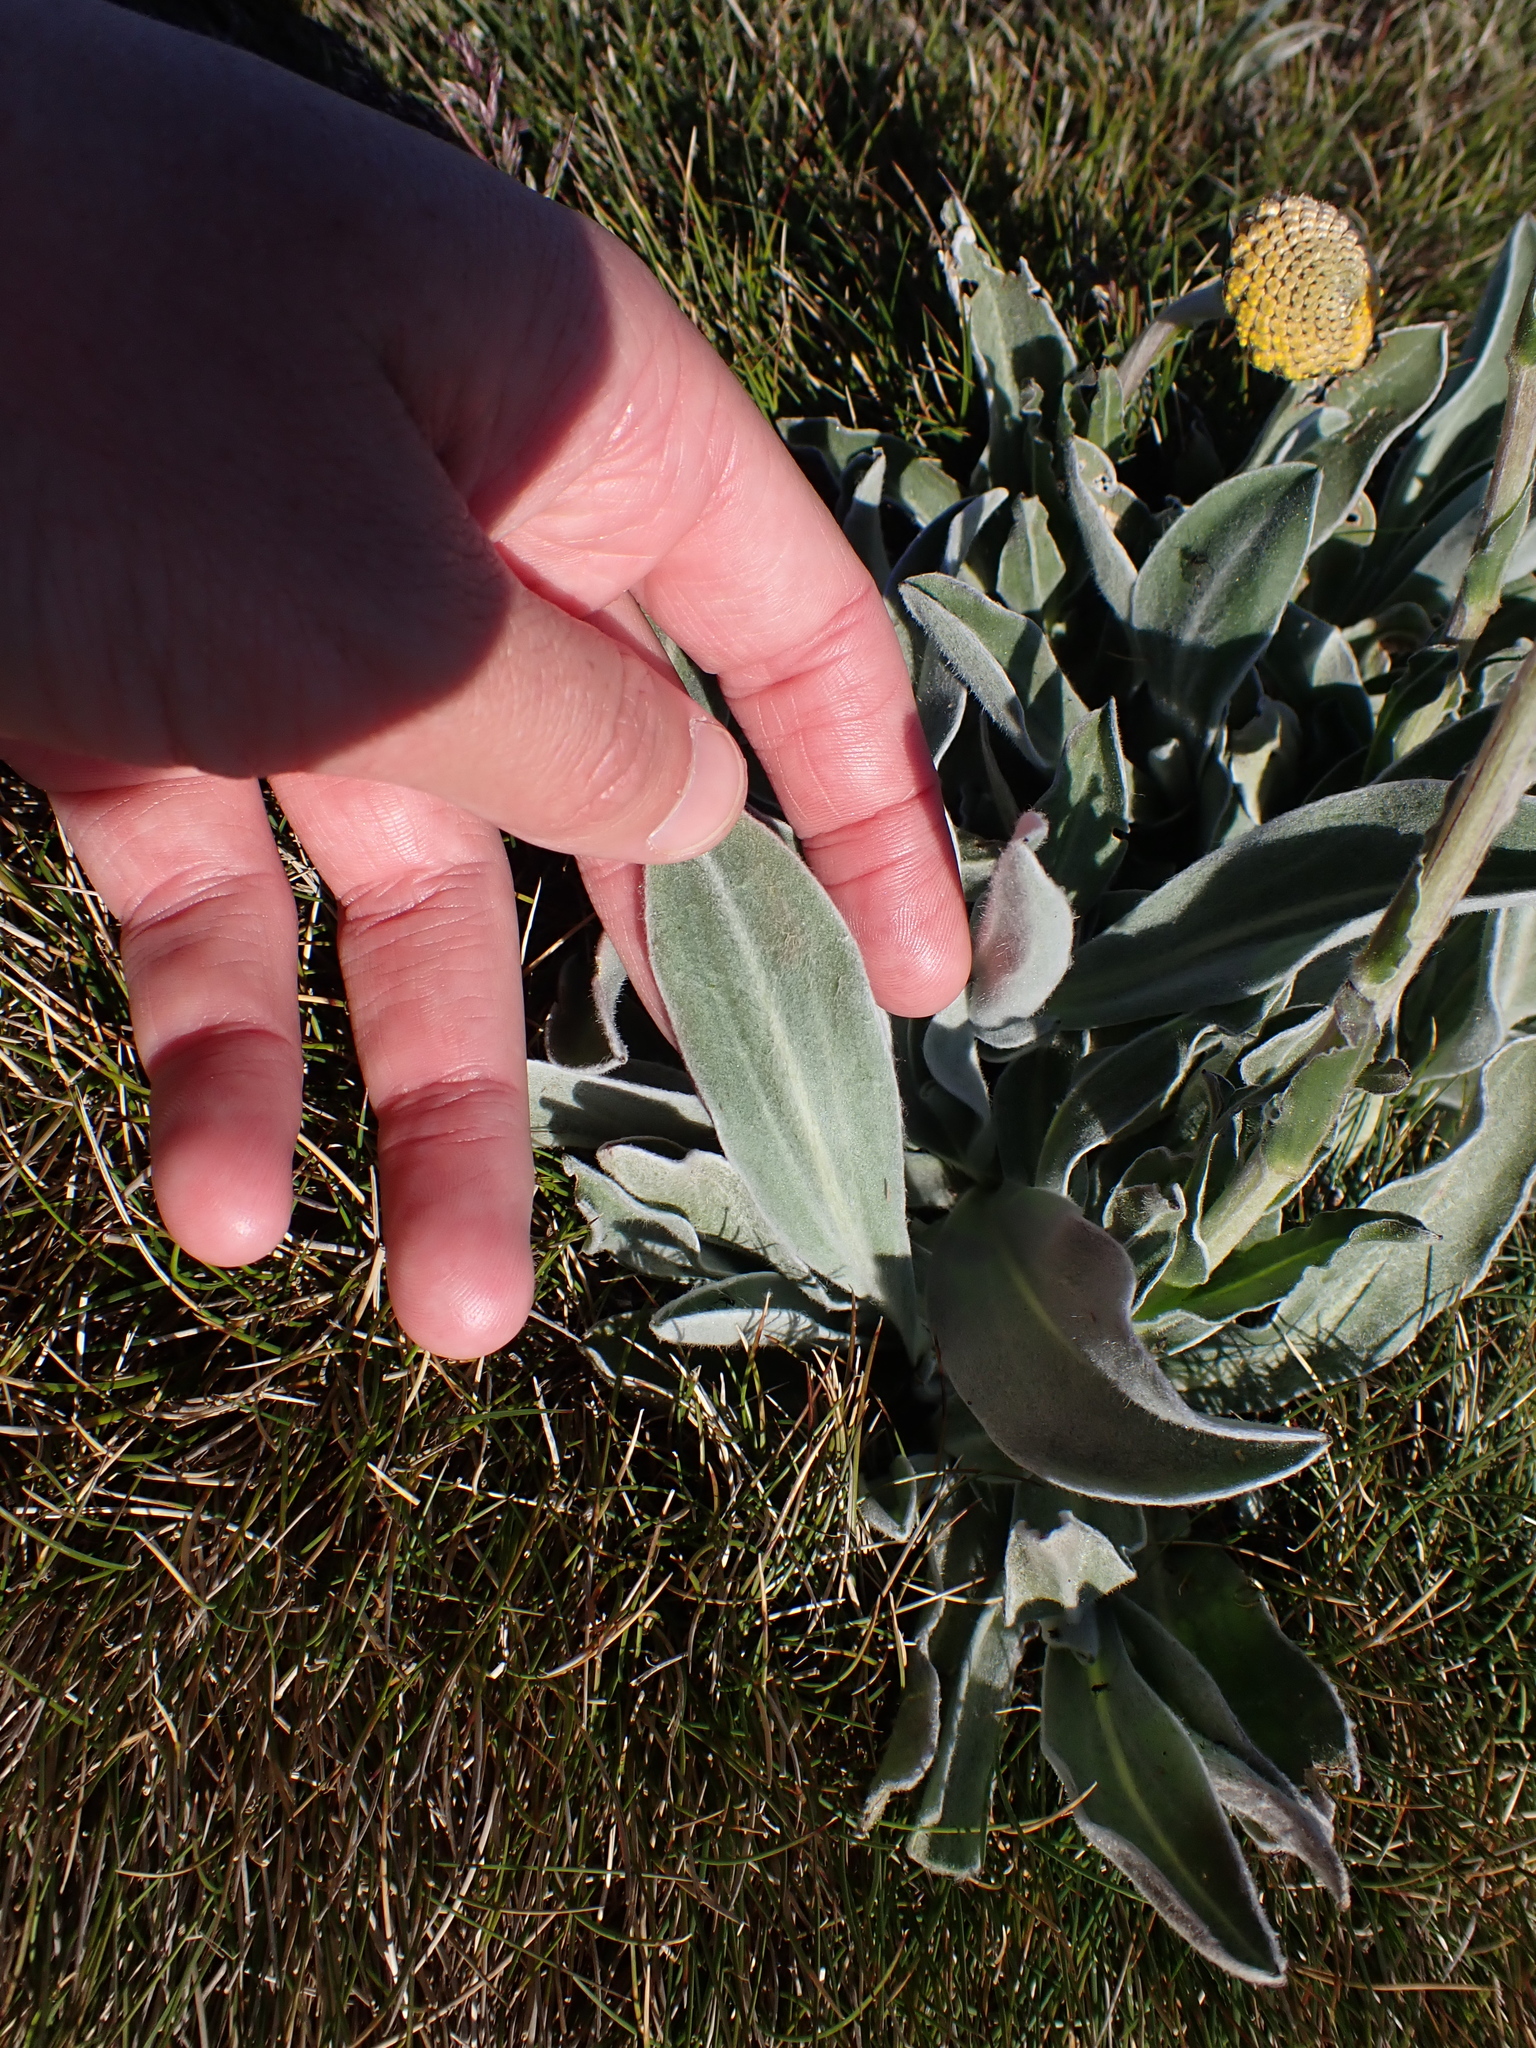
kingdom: Plantae
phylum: Tracheophyta
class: Magnoliopsida
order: Asterales
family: Asteraceae
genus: Craspedia
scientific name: Craspedia maxgrayi
